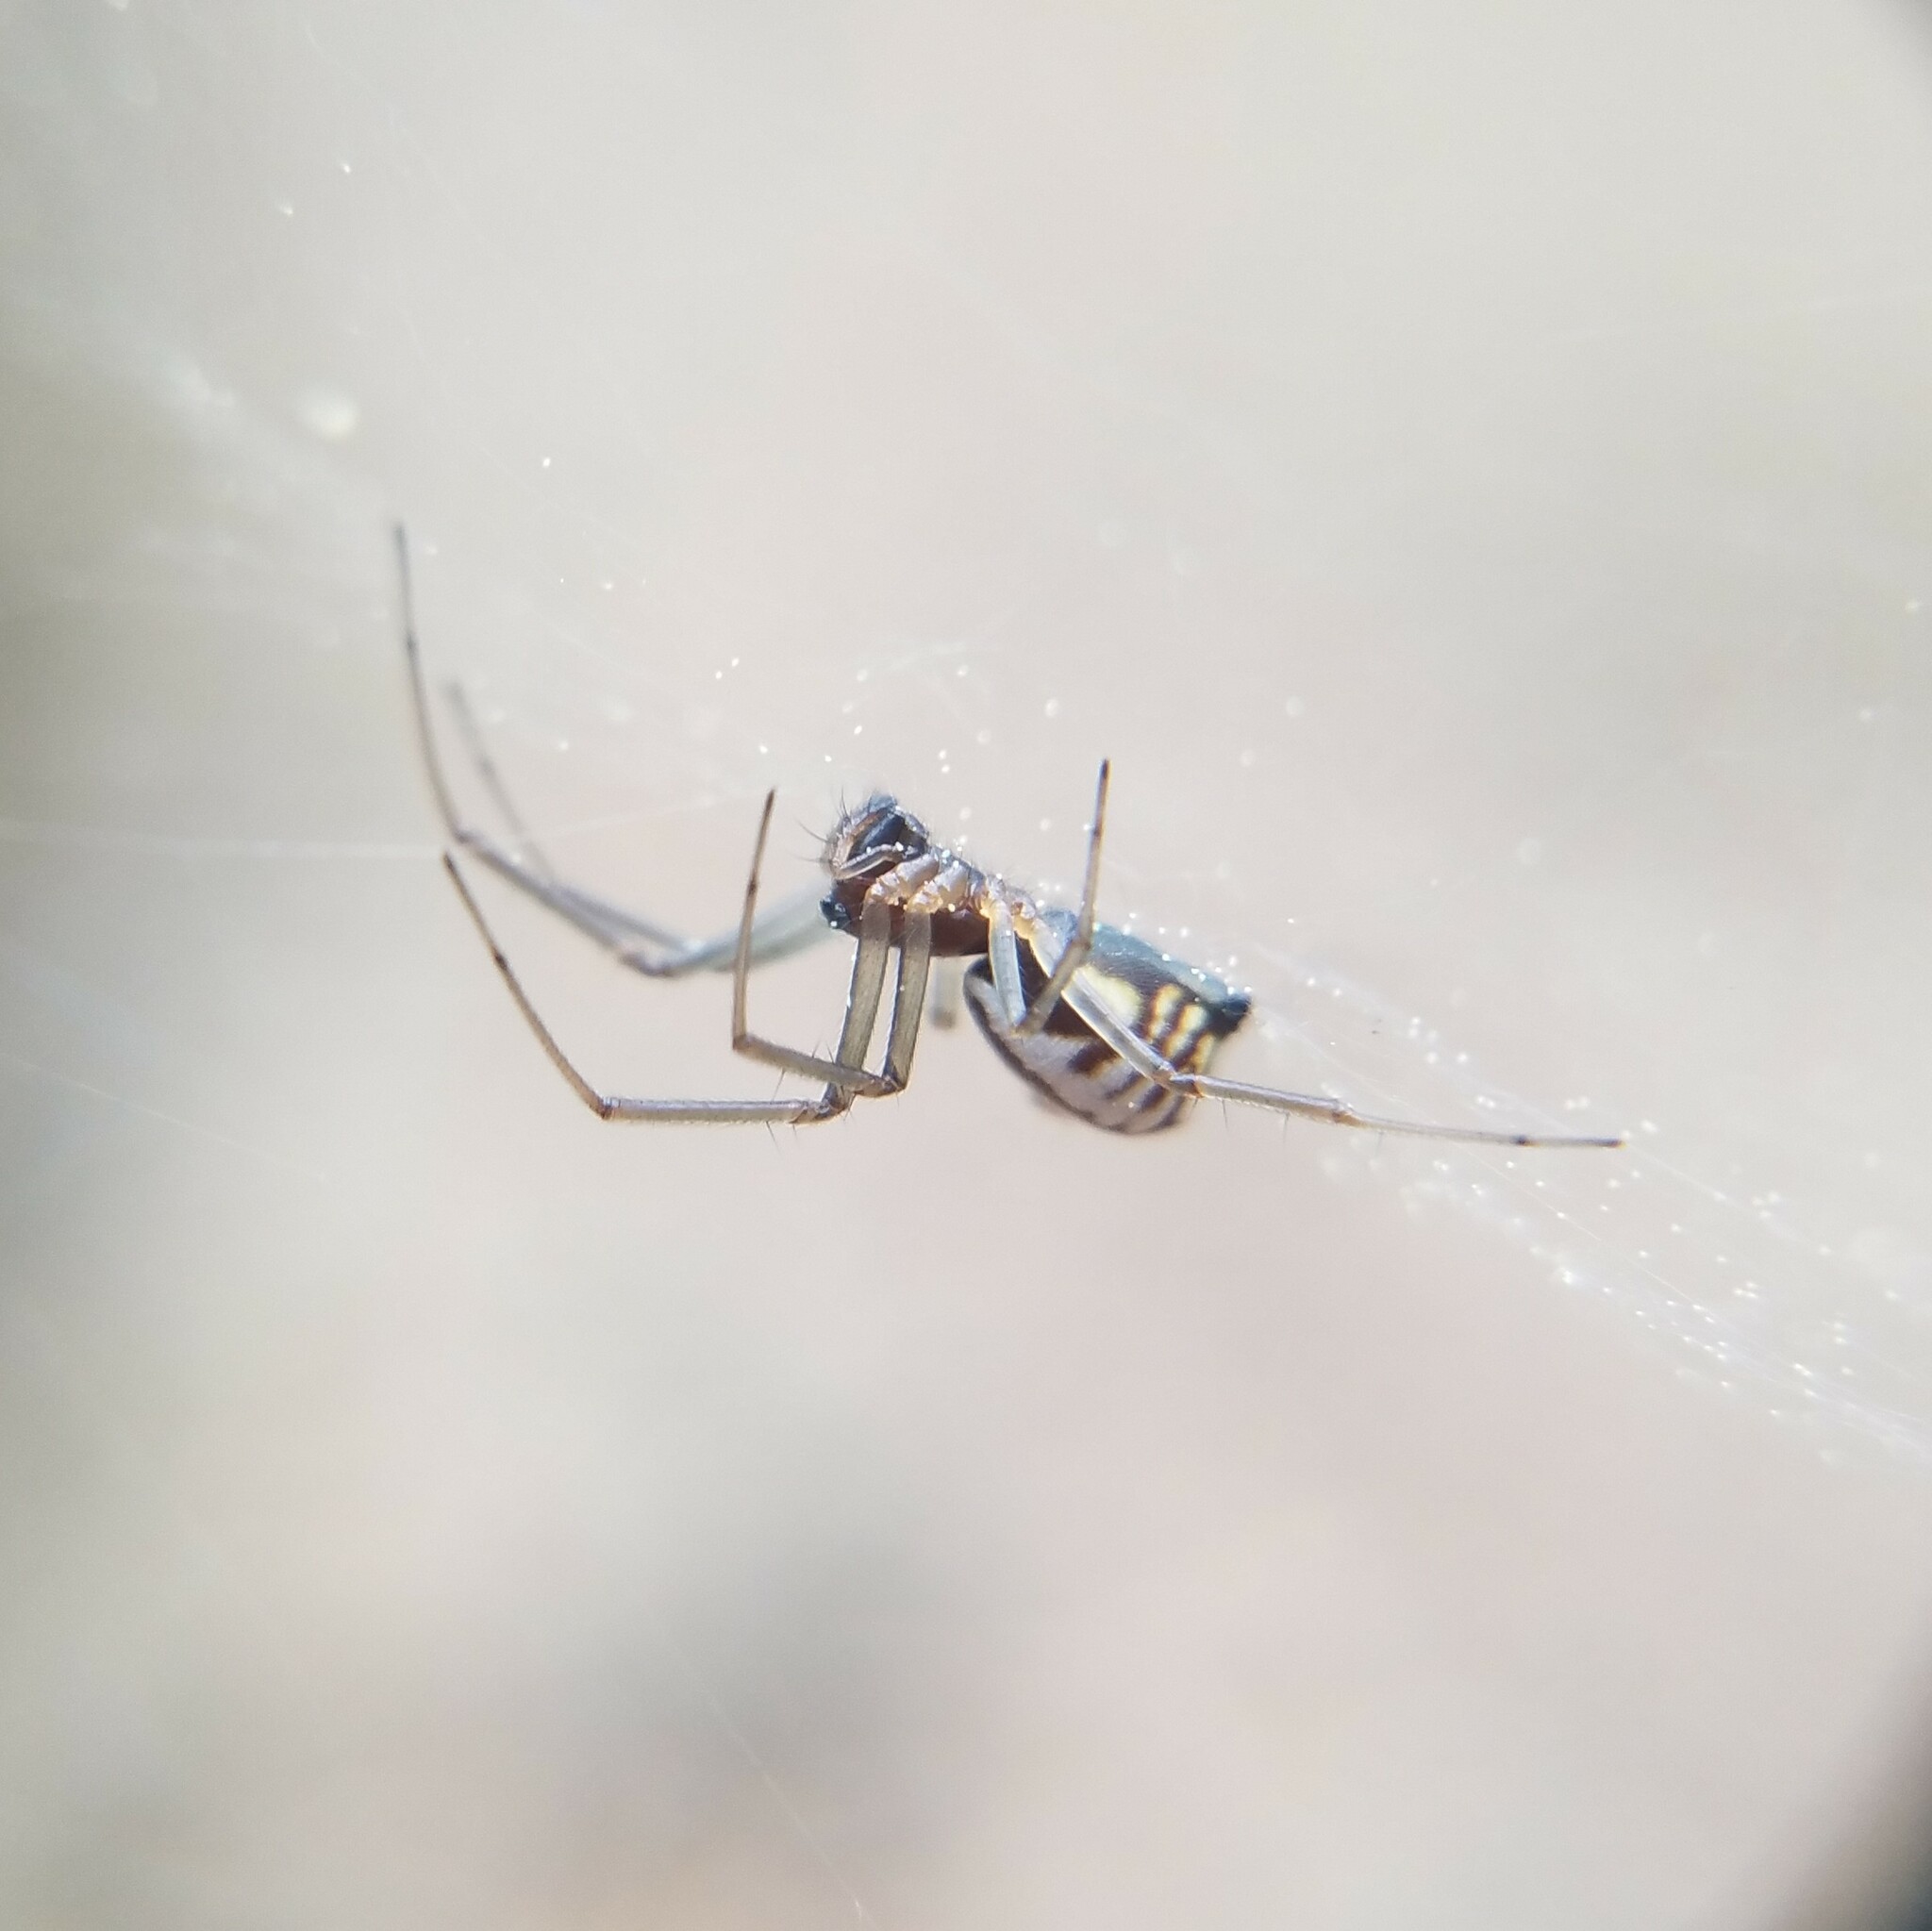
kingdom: Animalia
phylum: Arthropoda
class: Arachnida
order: Araneae
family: Linyphiidae
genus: Frontinella
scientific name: Frontinella pyramitela
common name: Bowl-and-doily spider
